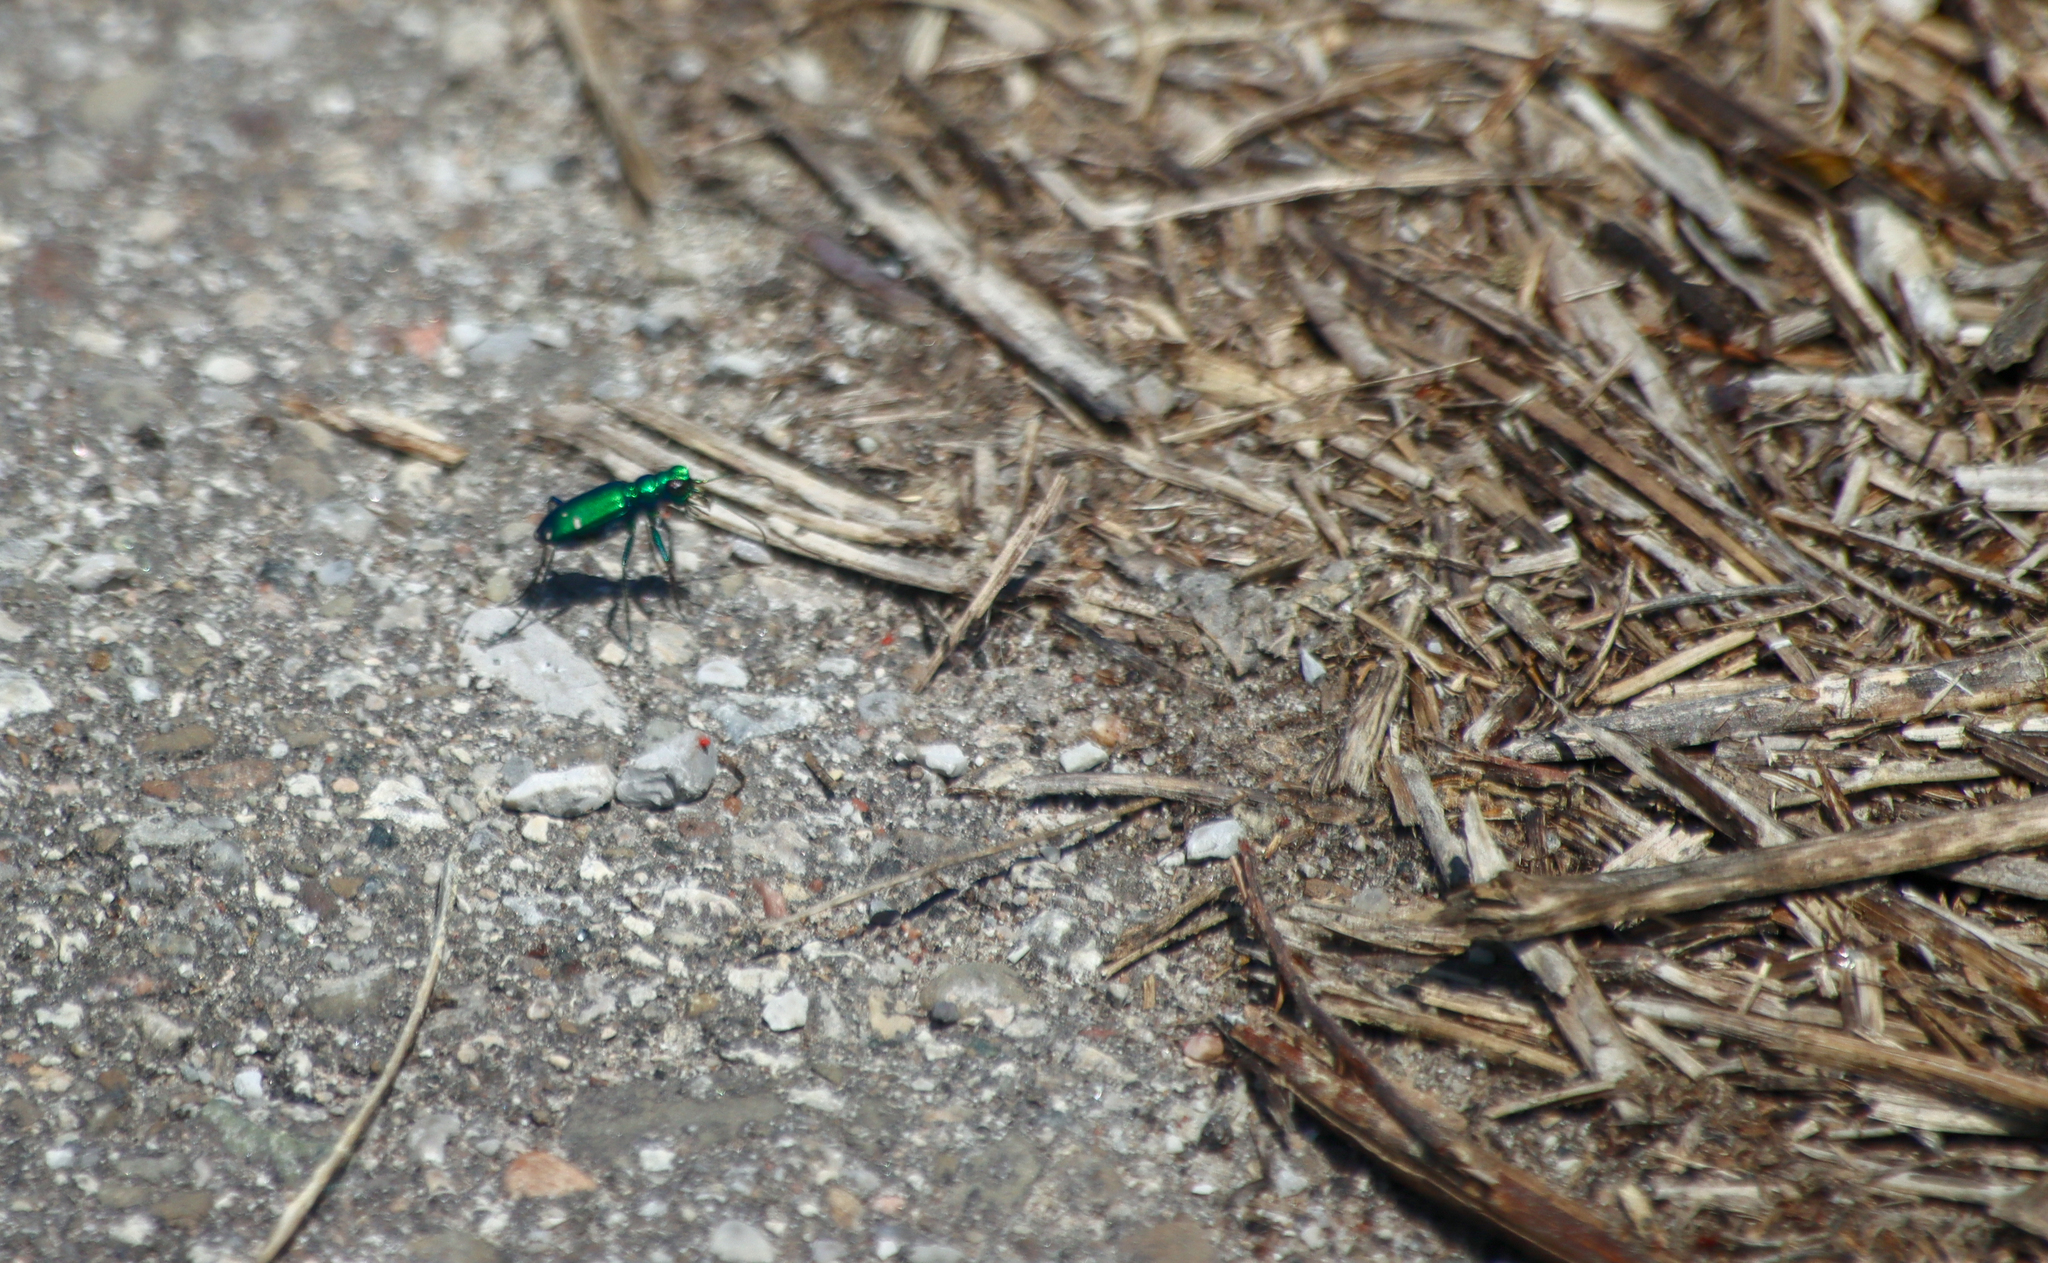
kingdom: Animalia
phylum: Arthropoda
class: Insecta
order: Coleoptera
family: Carabidae
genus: Cicindela
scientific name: Cicindela sexguttata
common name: Six-spotted tiger beetle
